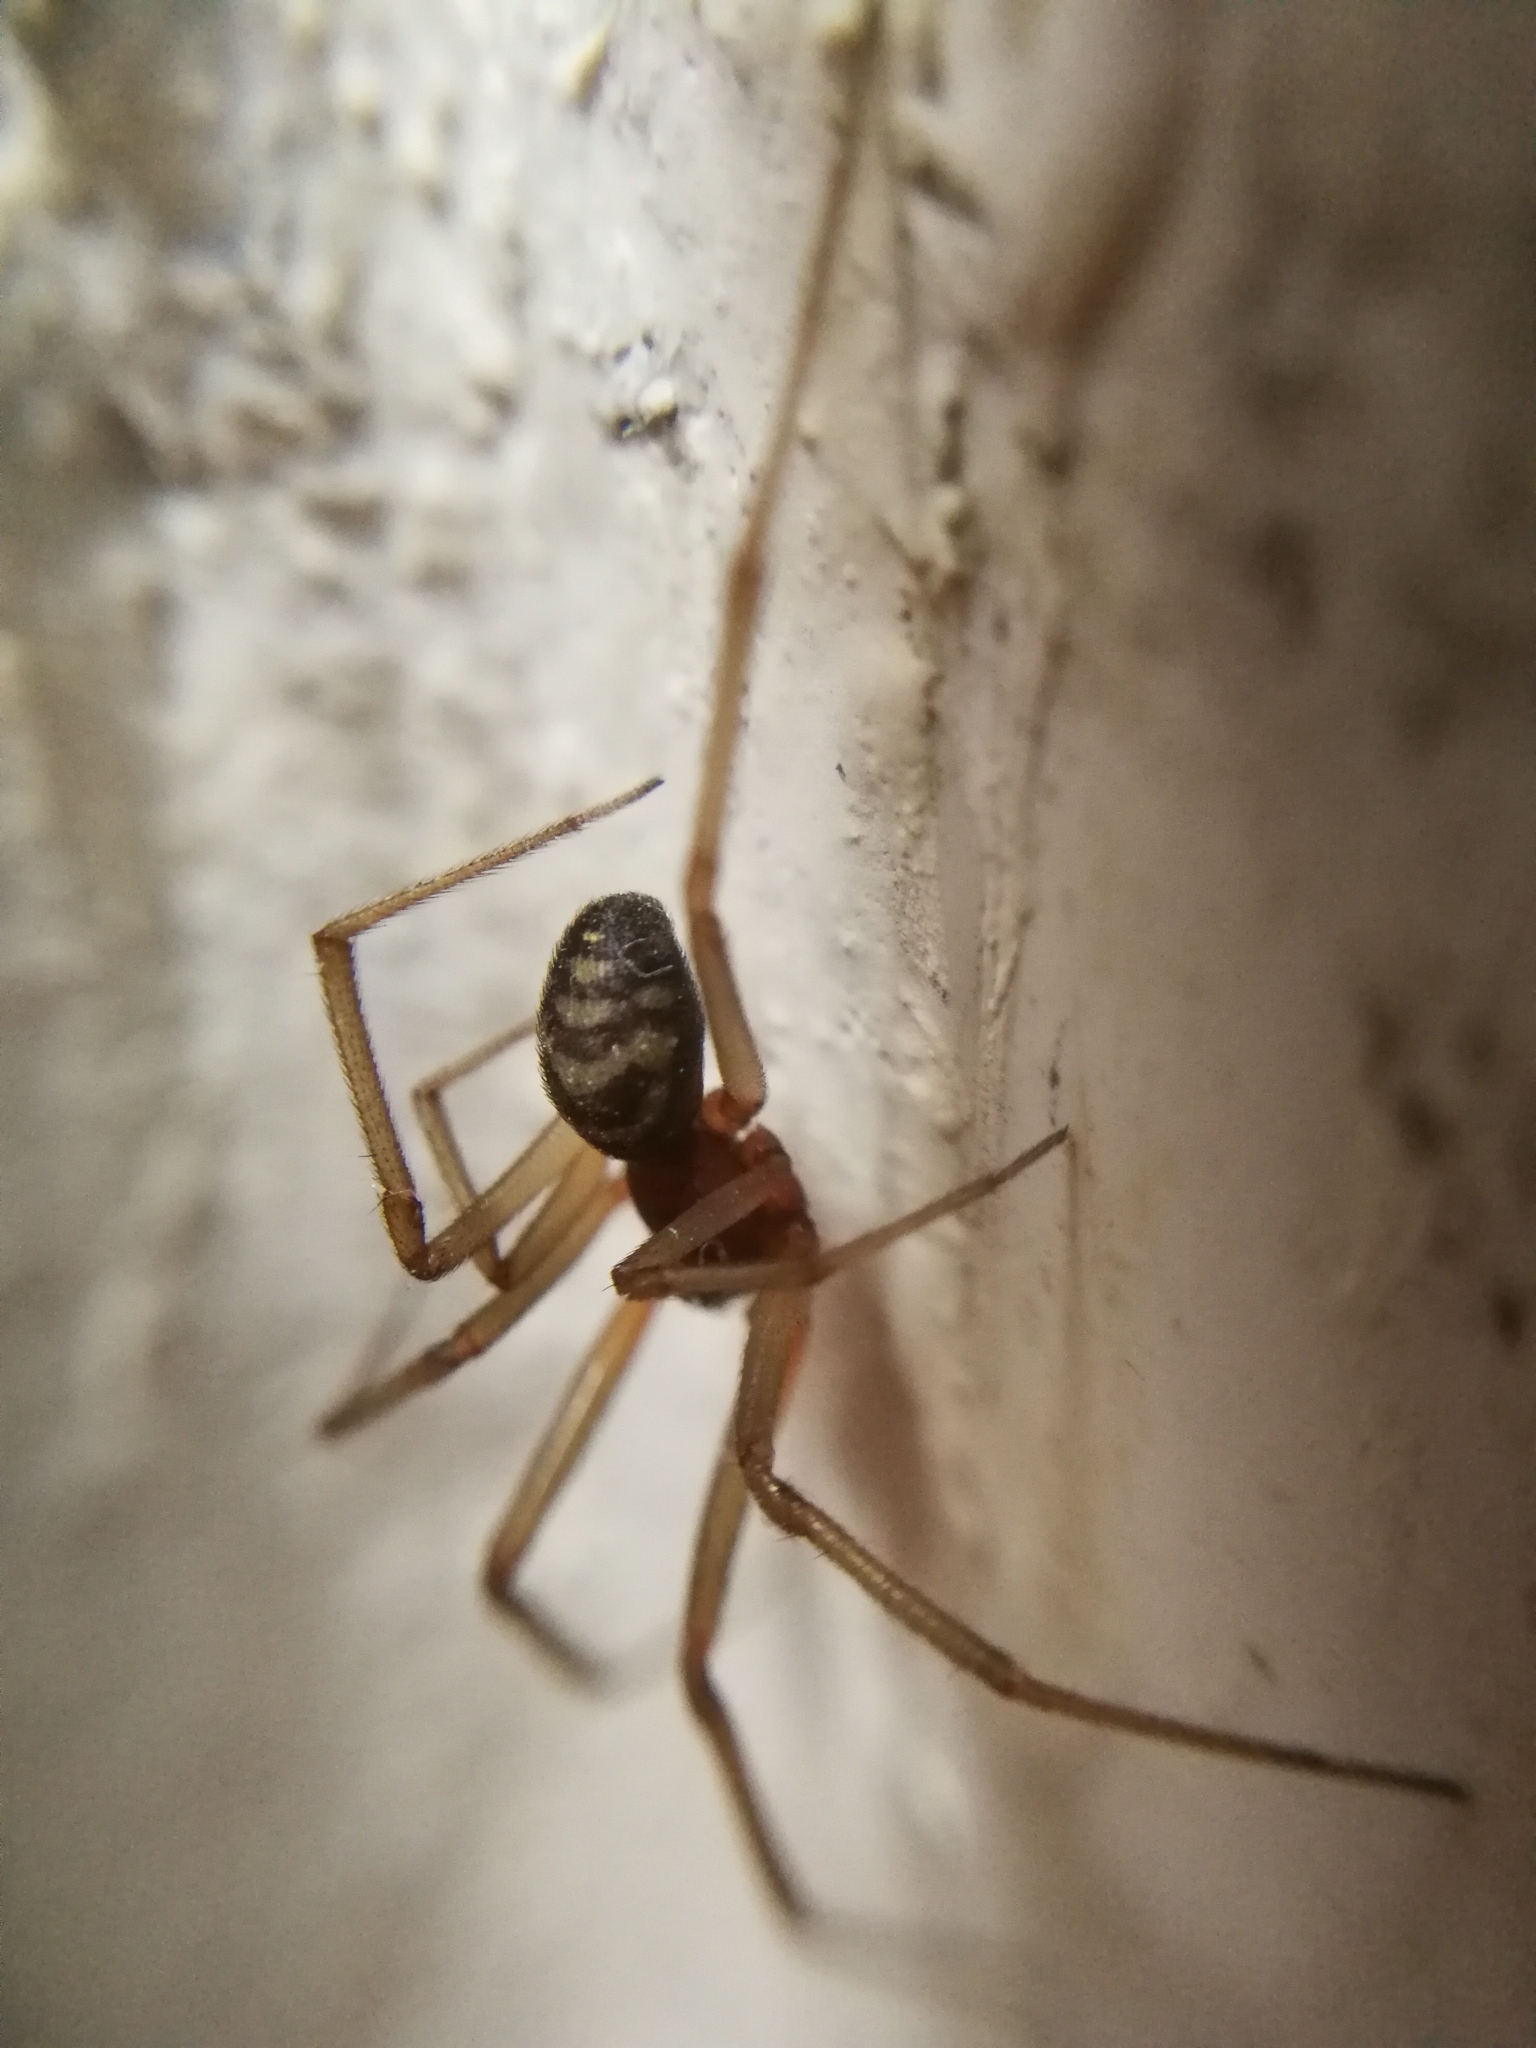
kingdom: Animalia
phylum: Arthropoda
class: Arachnida
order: Araneae
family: Theridiidae
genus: Steatoda
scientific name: Steatoda grossa
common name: False black widow
